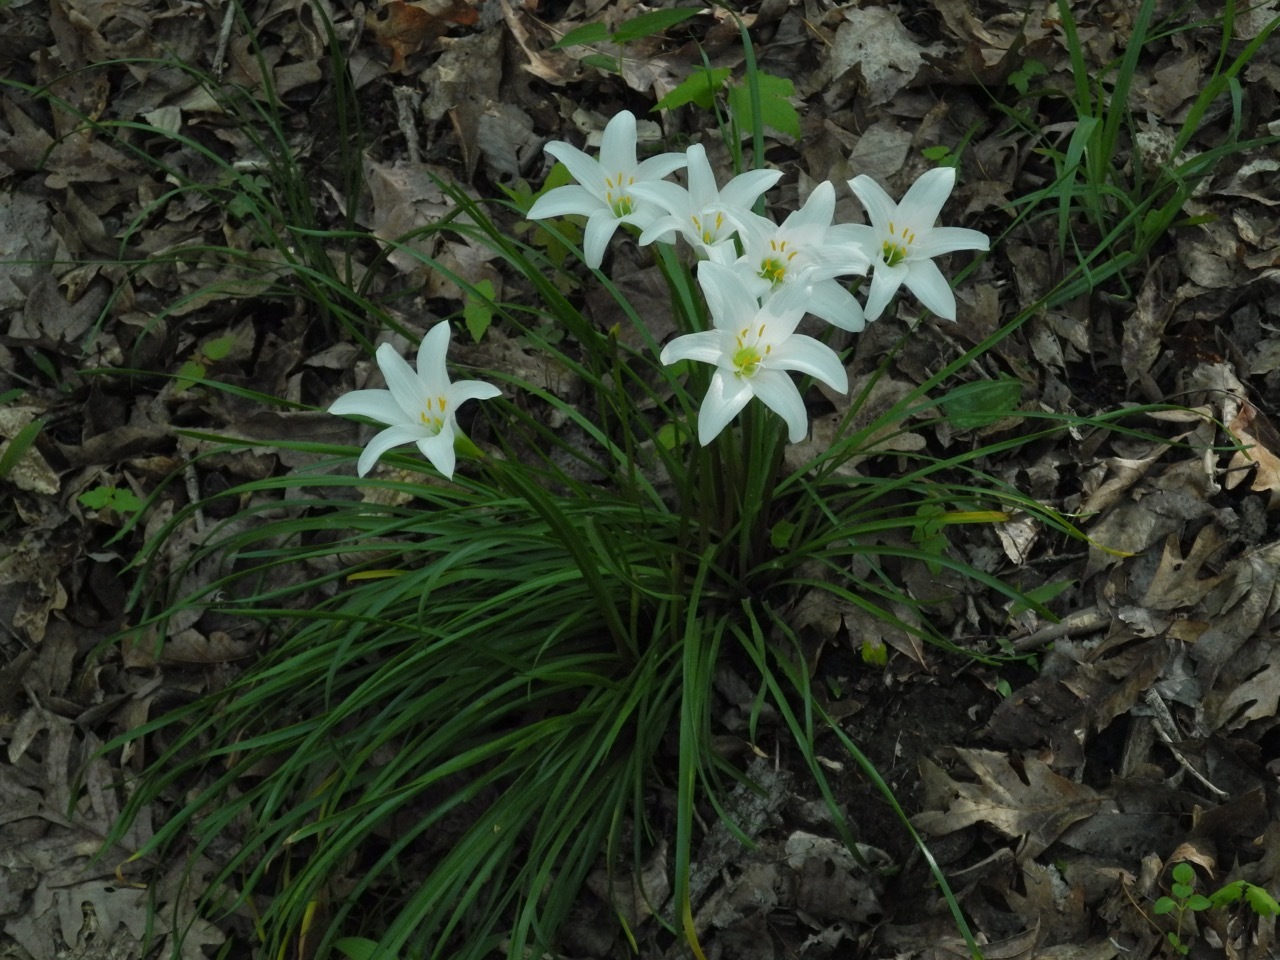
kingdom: Plantae
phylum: Tracheophyta
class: Liliopsida
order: Asparagales
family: Amaryllidaceae
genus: Zephyranthes
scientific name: Zephyranthes atamasco
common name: Atamasco lily
